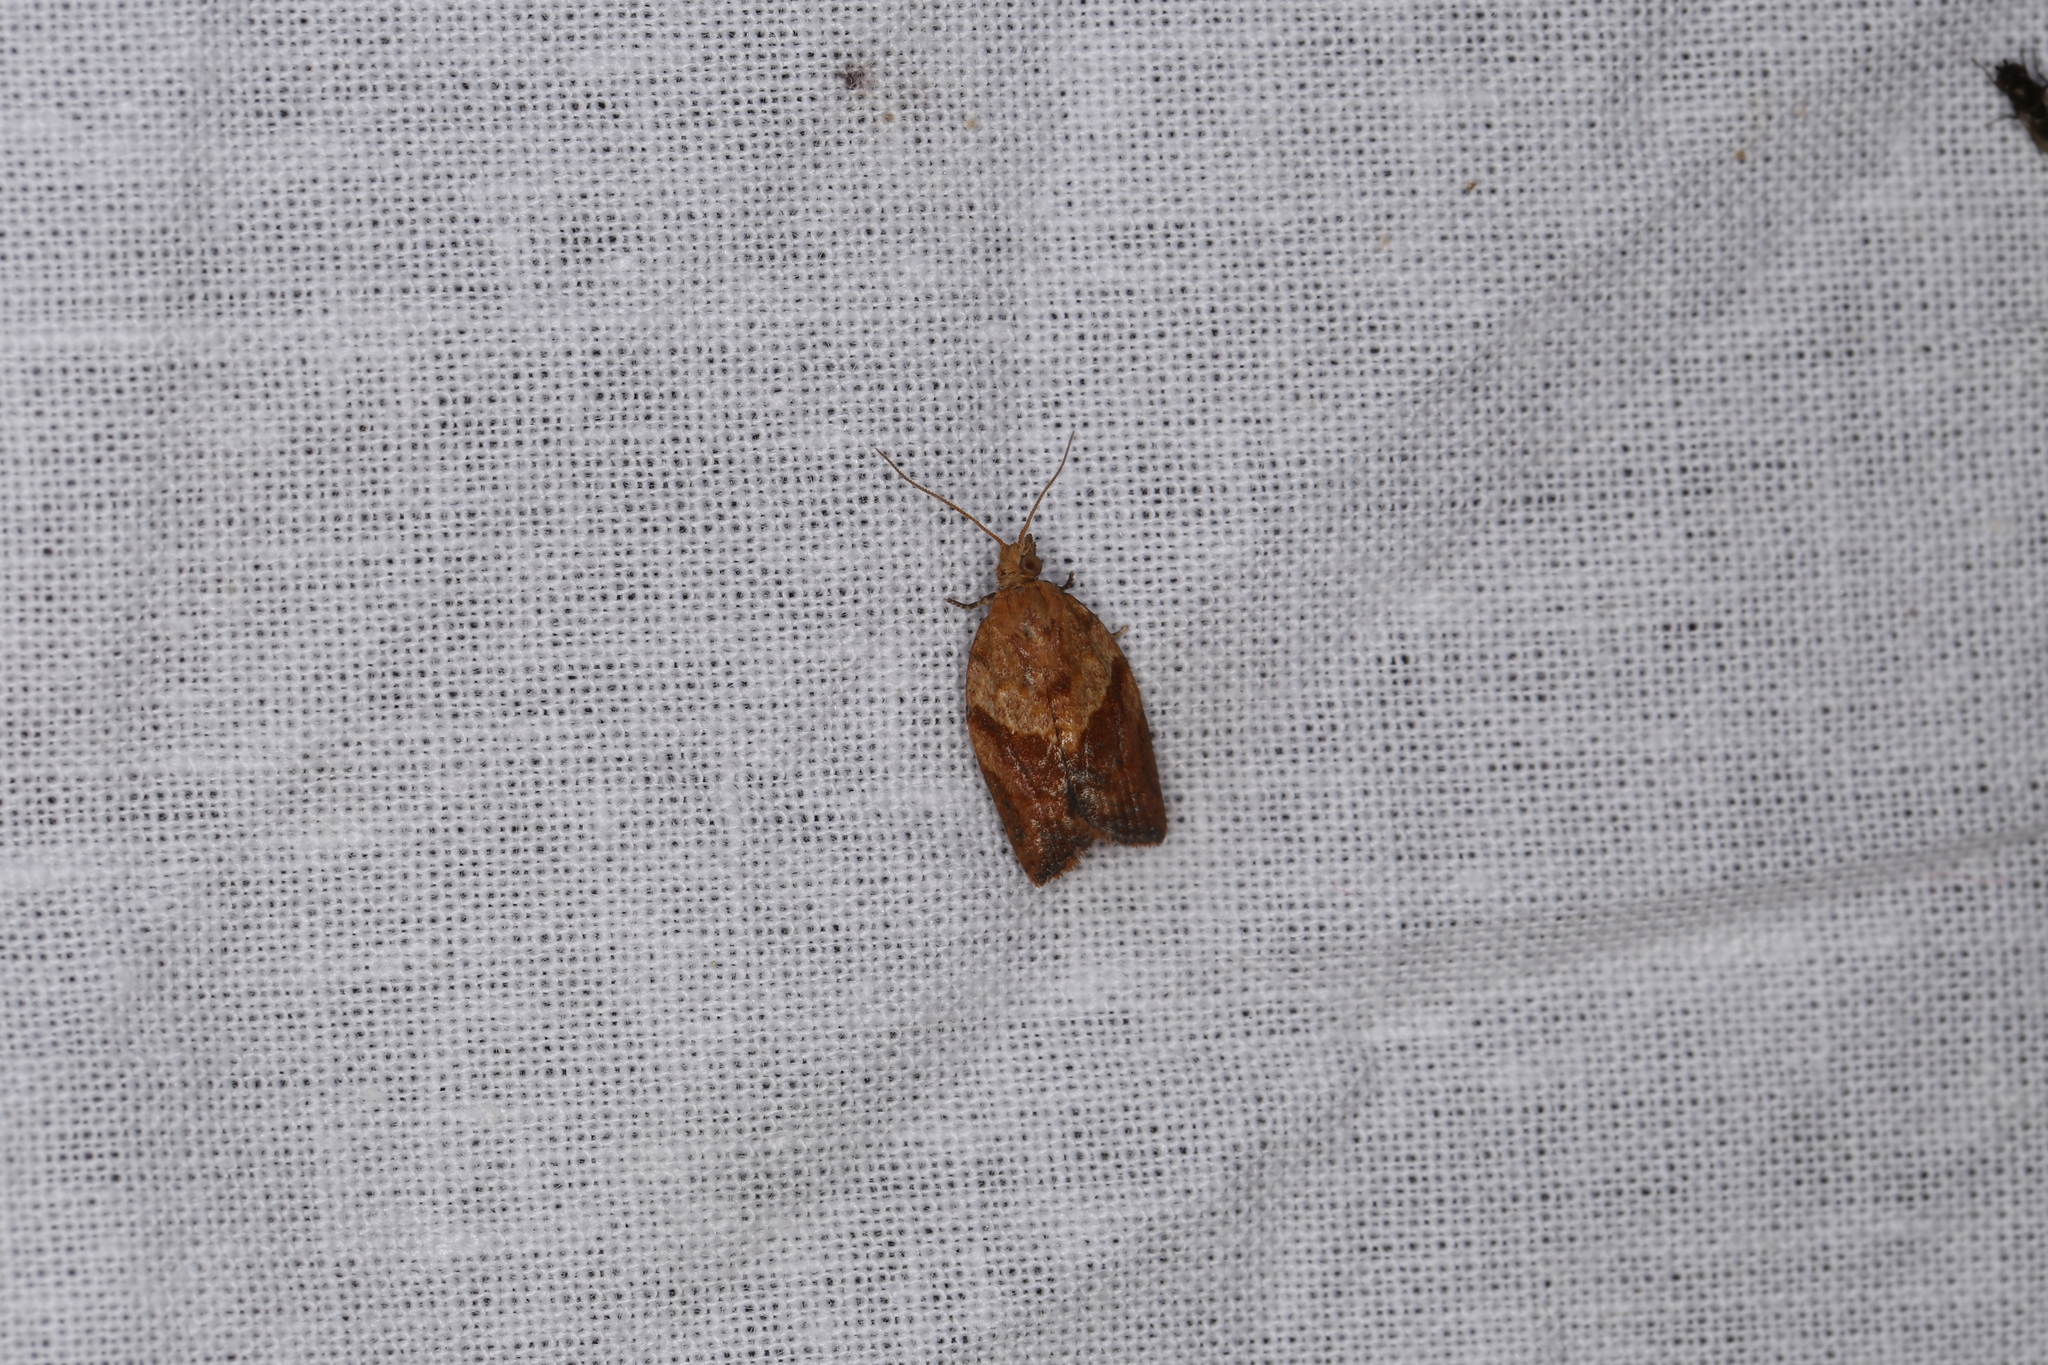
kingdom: Animalia
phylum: Arthropoda
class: Insecta
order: Lepidoptera
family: Tortricidae
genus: Epiphyas
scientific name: Epiphyas postvittana
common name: Light brown apple moth
